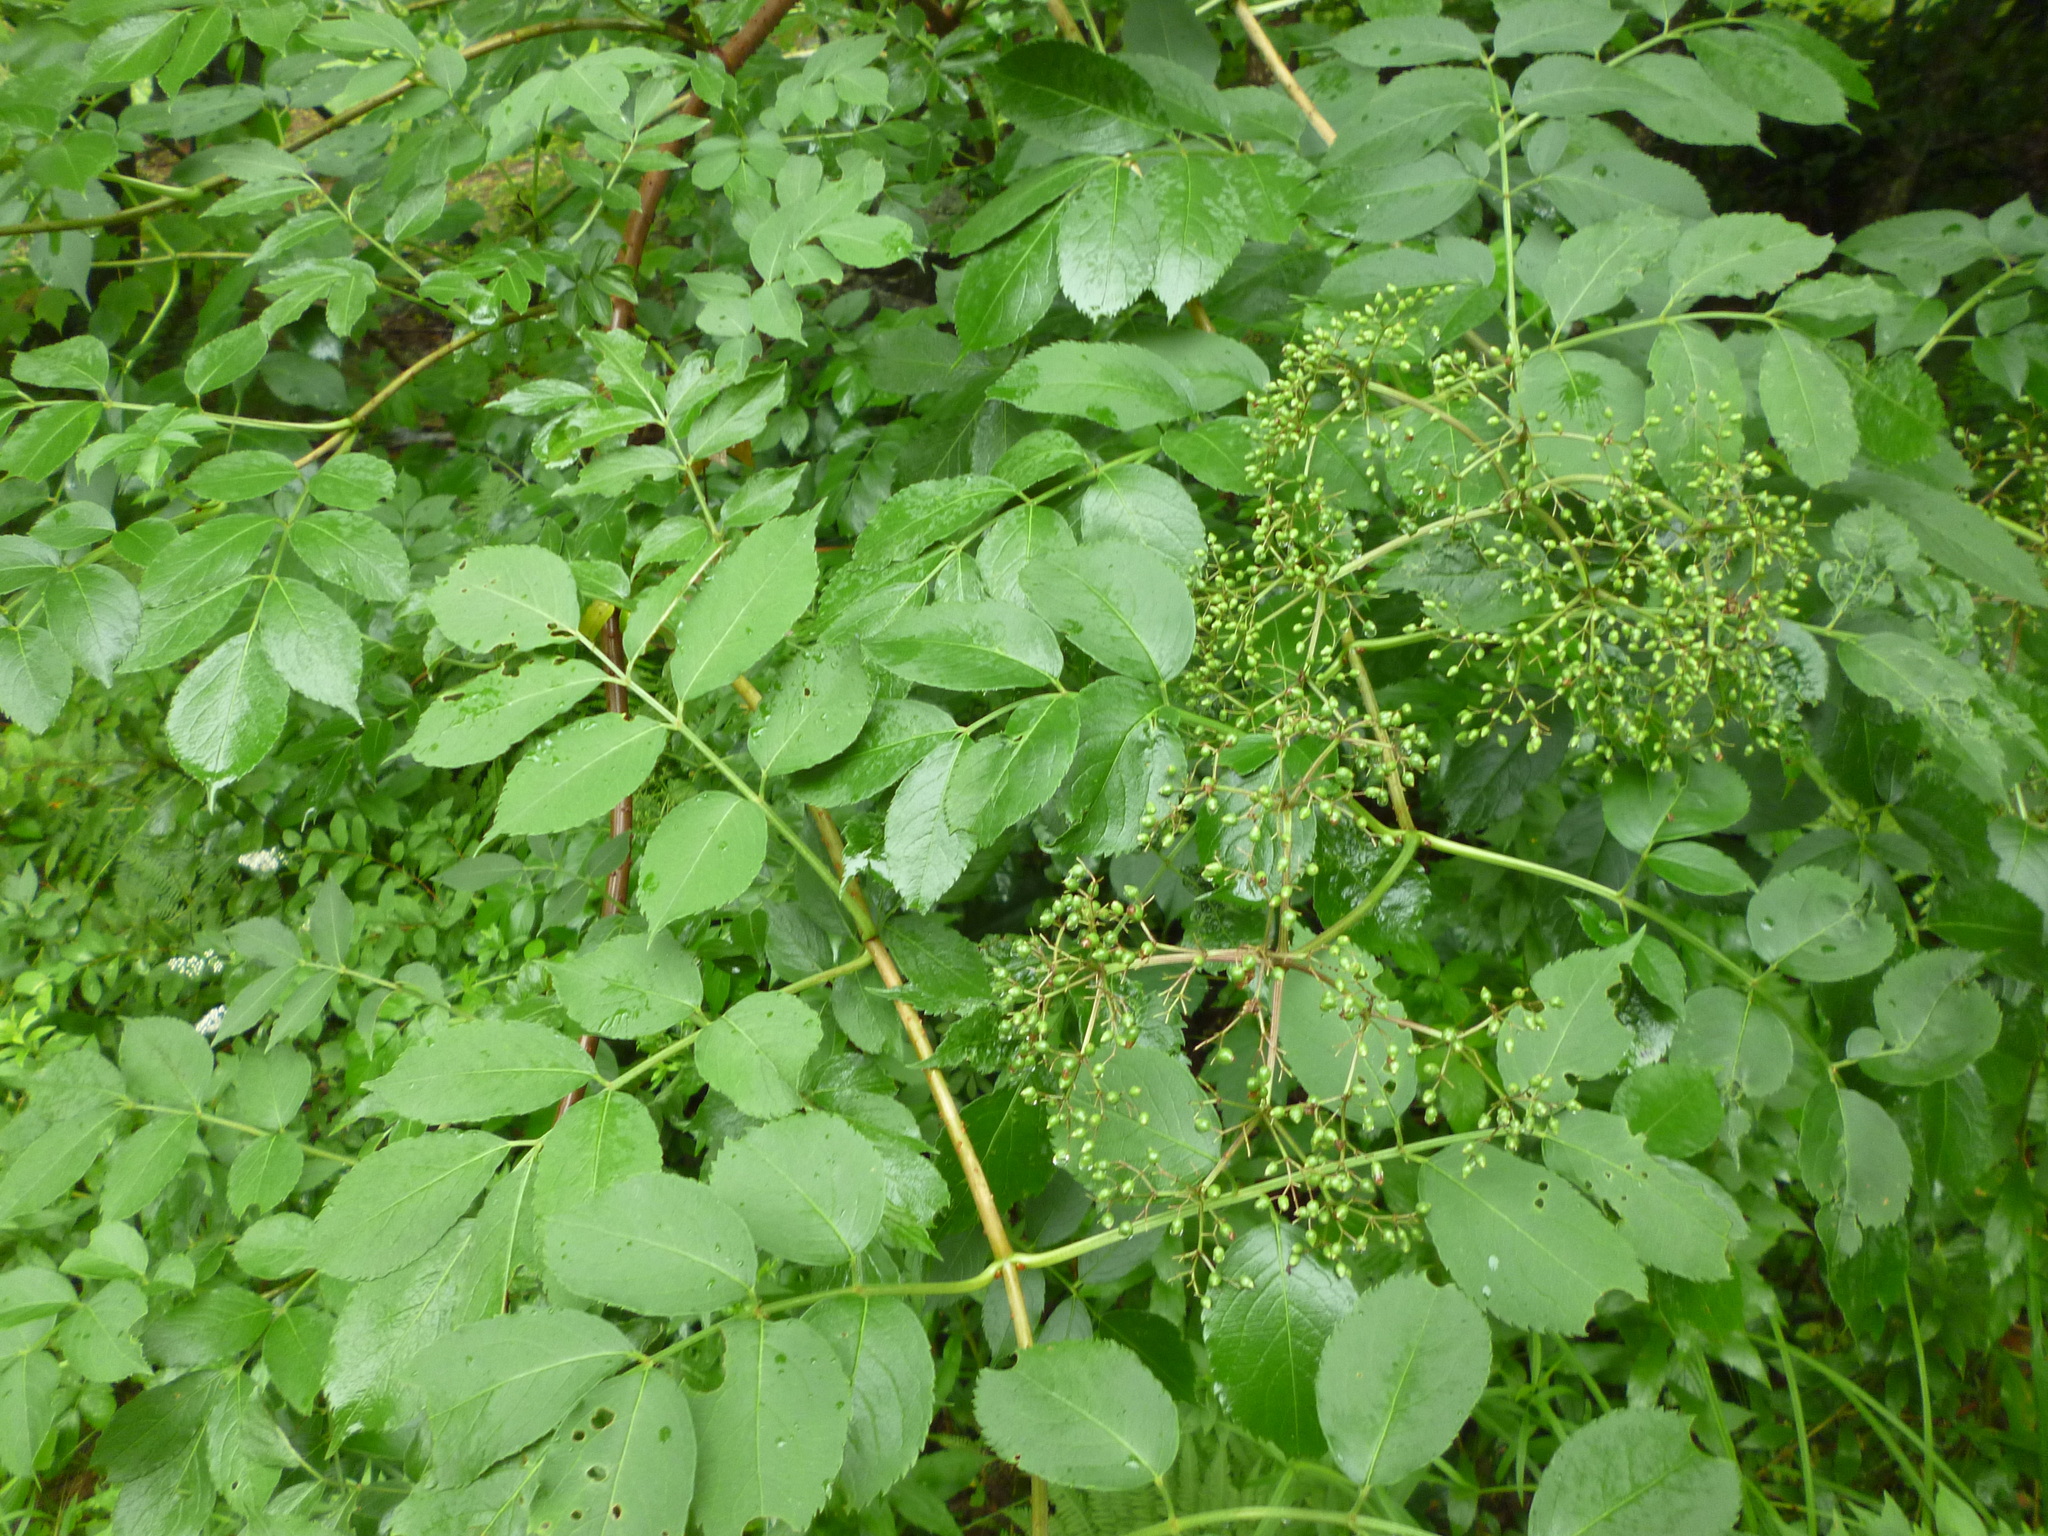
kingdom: Plantae
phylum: Tracheophyta
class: Magnoliopsida
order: Dipsacales
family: Viburnaceae
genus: Sambucus
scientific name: Sambucus canadensis
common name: American elder
